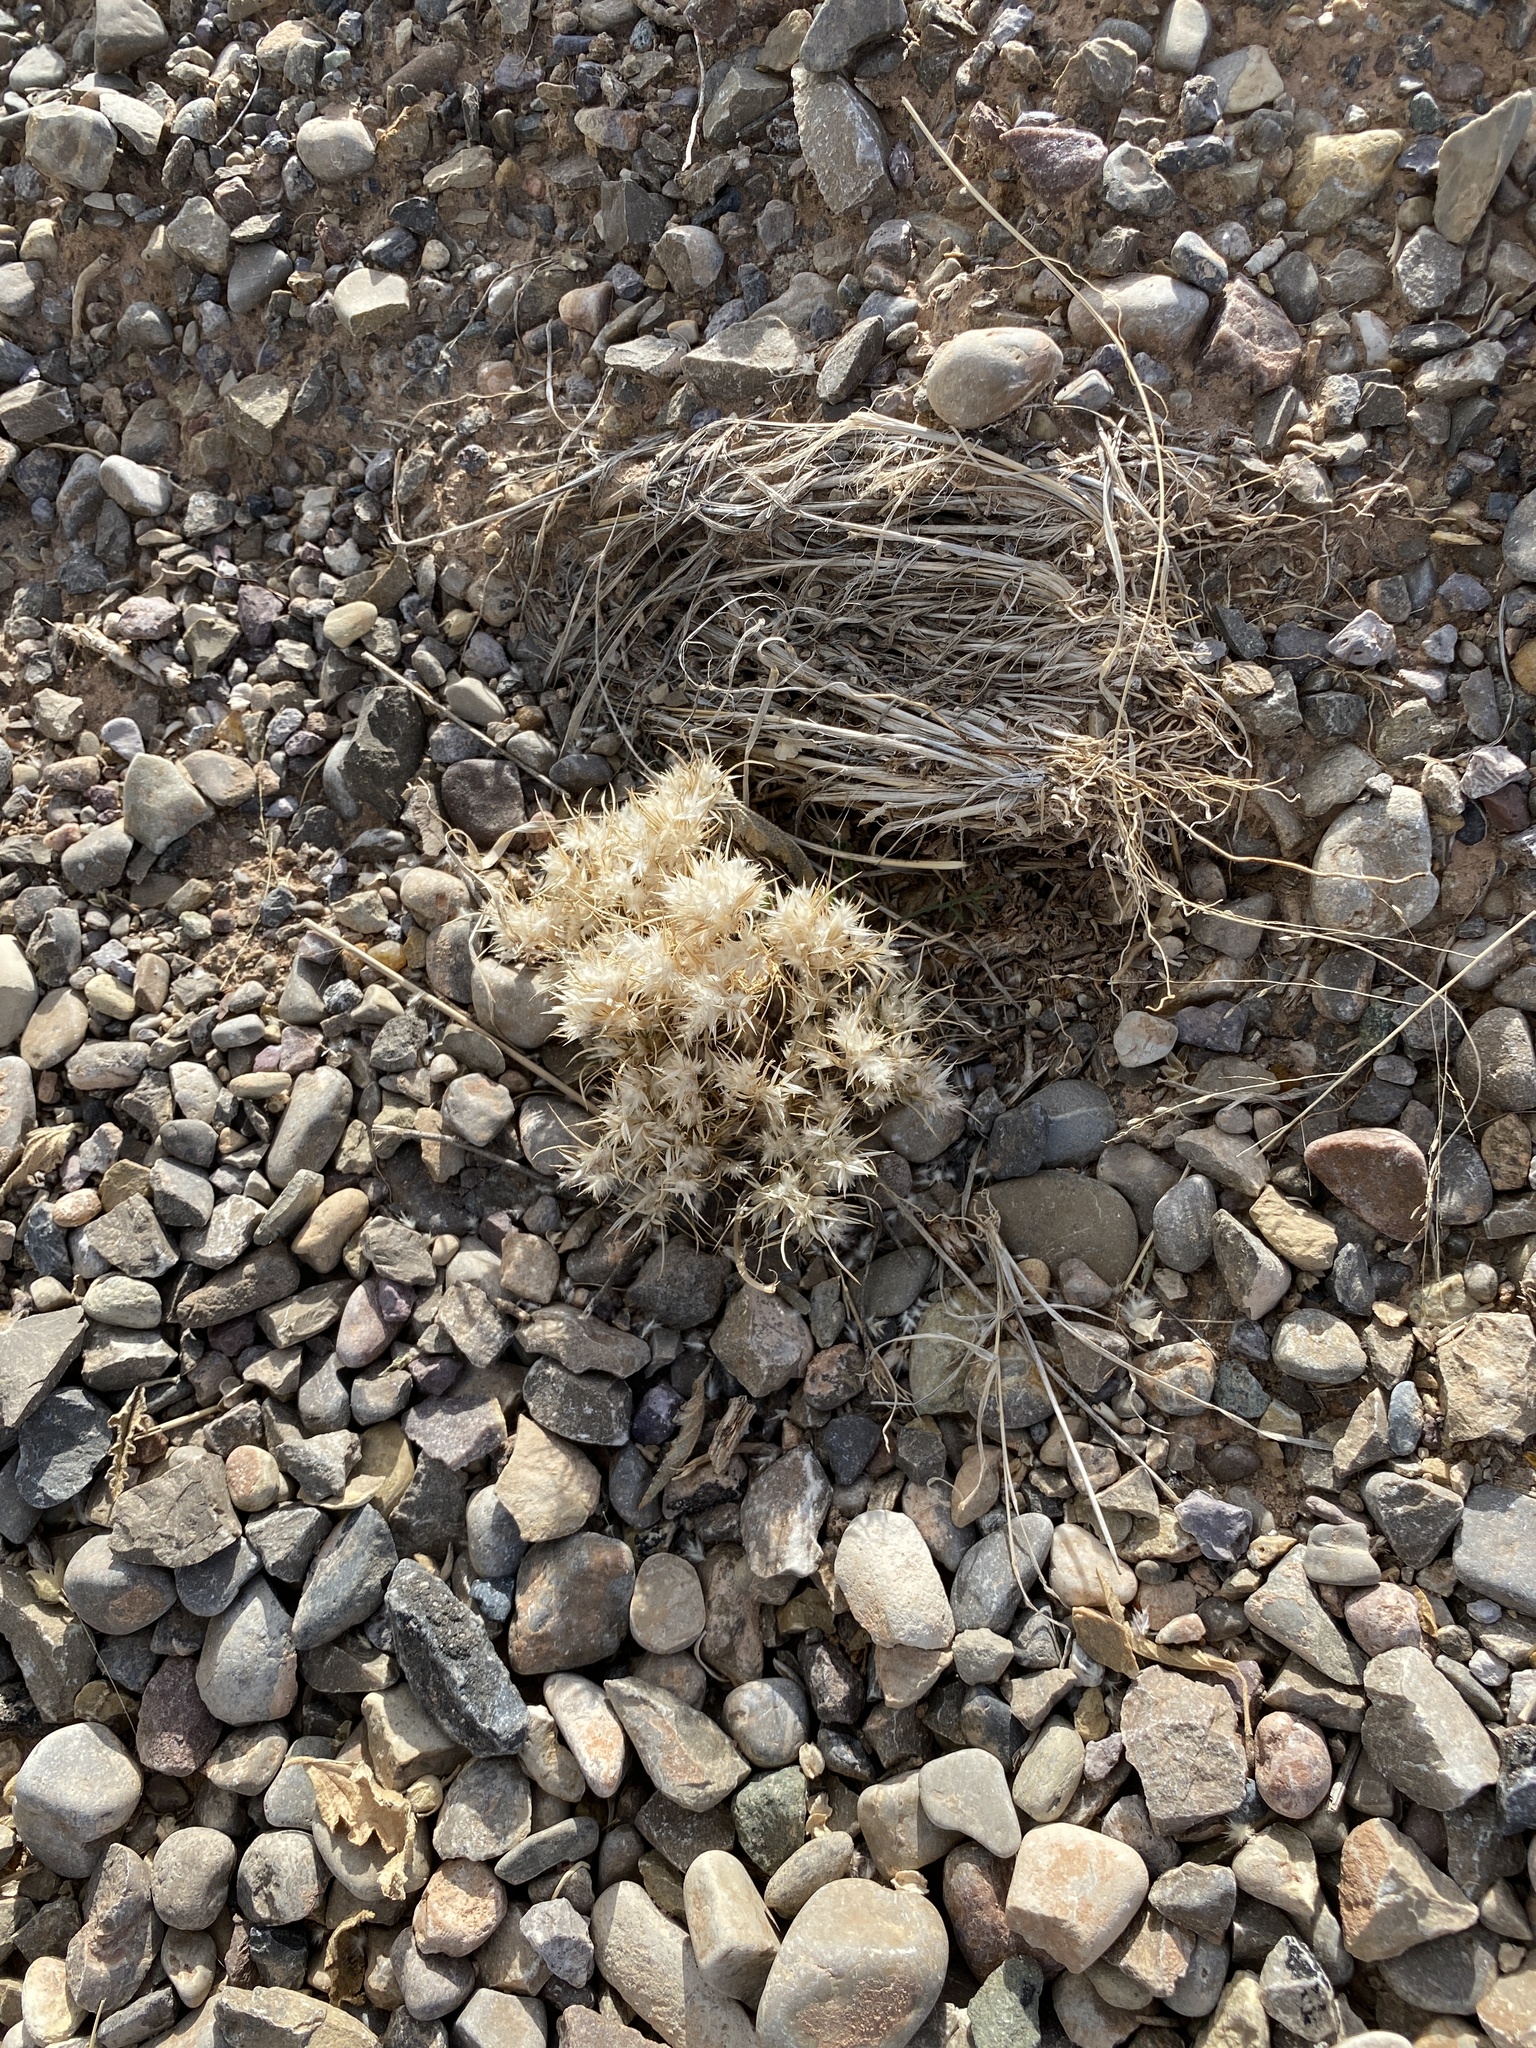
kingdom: Plantae
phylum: Tracheophyta
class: Liliopsida
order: Poales
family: Poaceae
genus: Dasyochloa
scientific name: Dasyochloa pulchella
